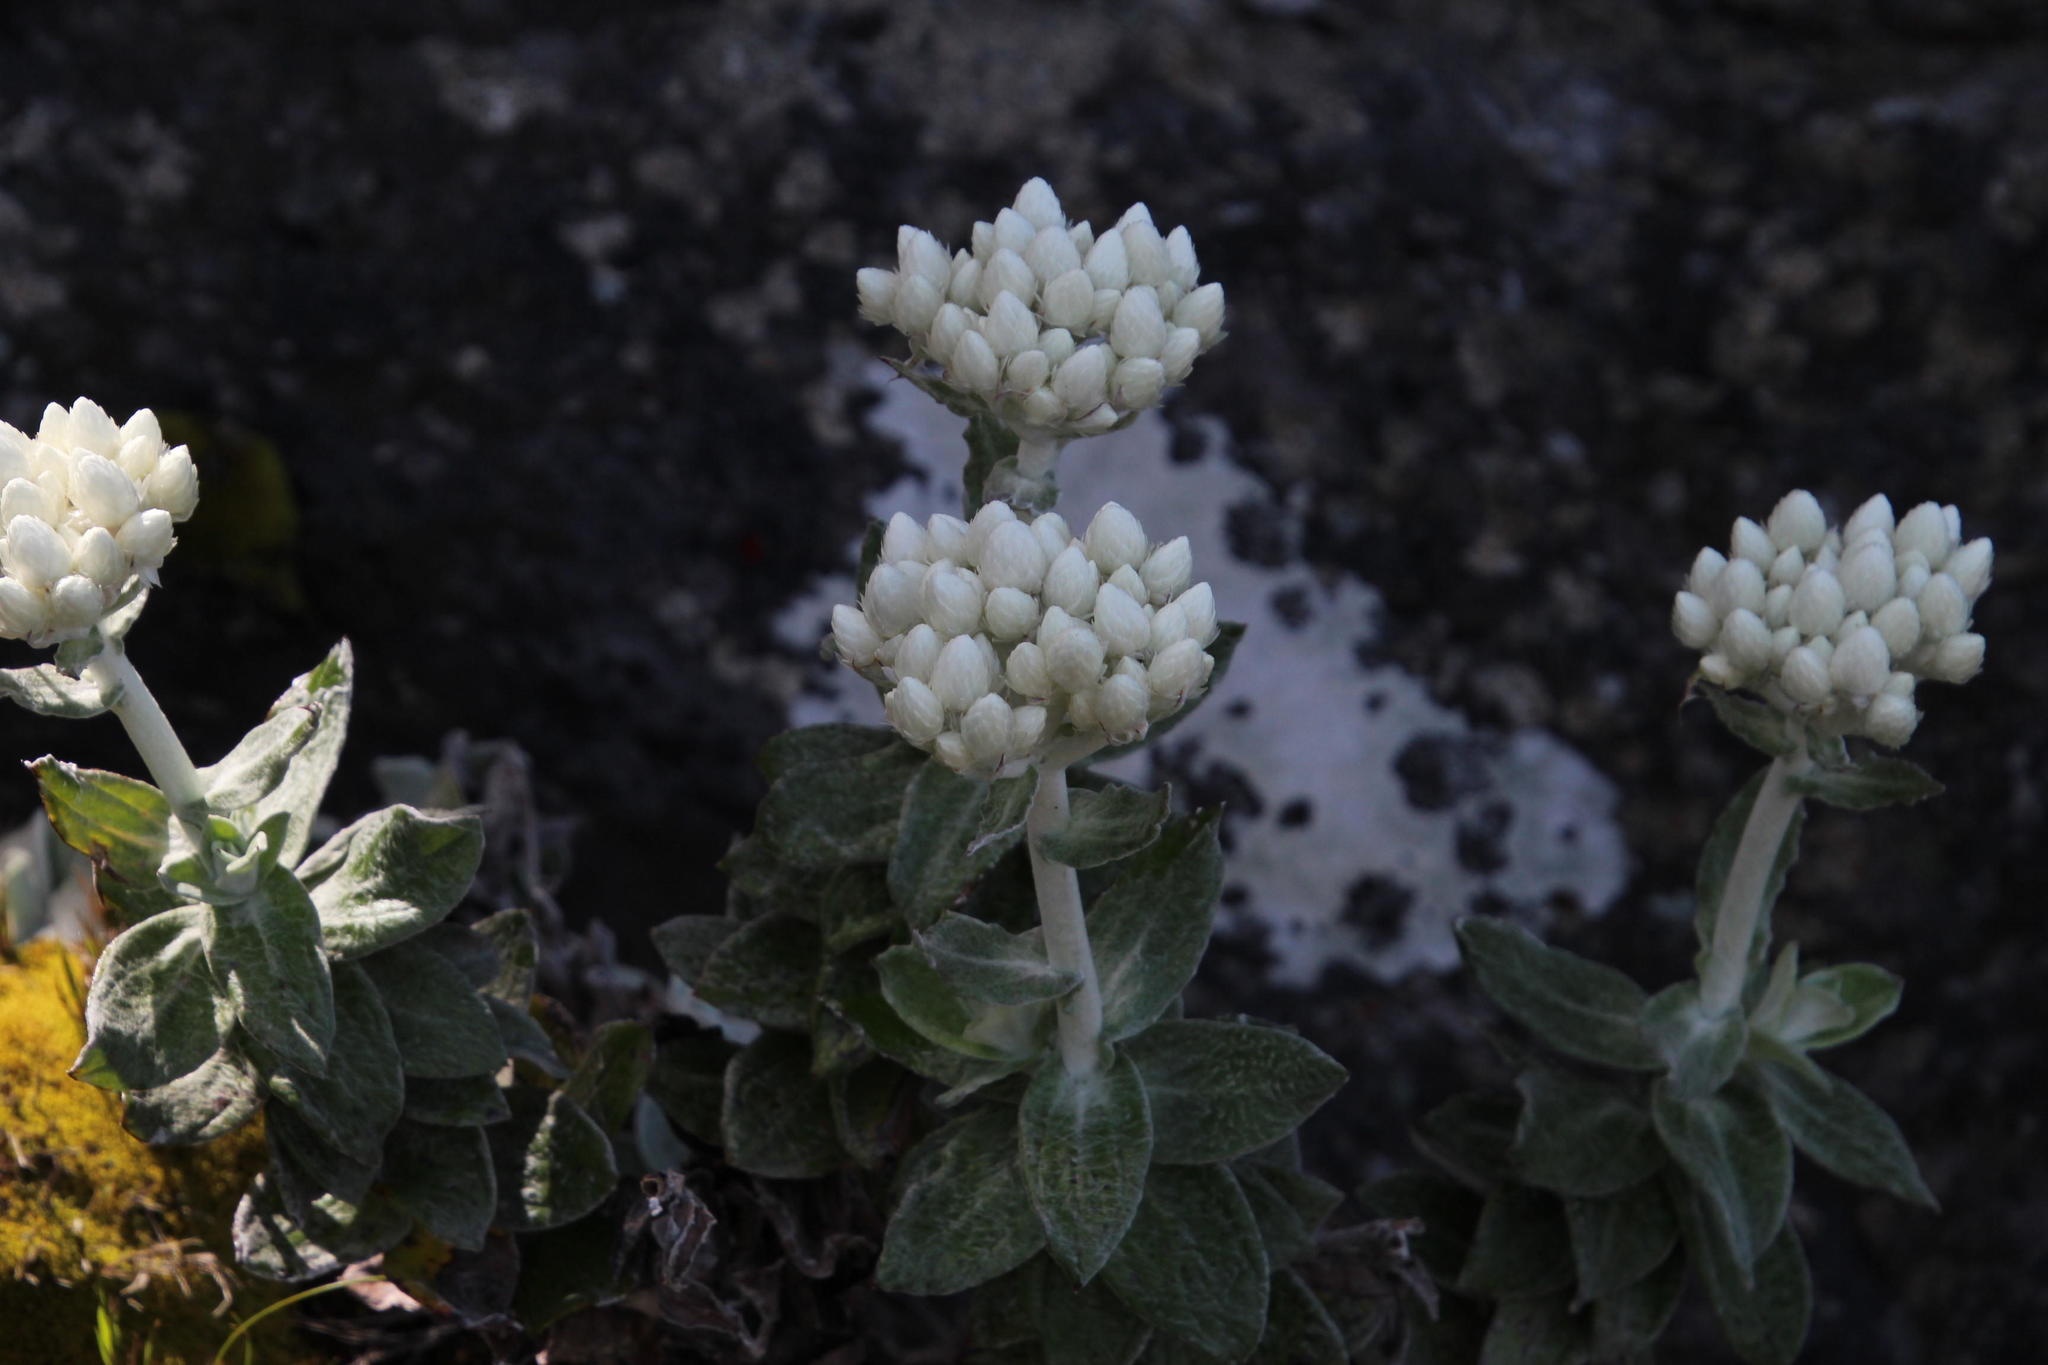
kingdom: Plantae
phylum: Tracheophyta
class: Magnoliopsida
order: Asterales
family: Asteraceae
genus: Helichrysum
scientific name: Helichrysum grandiflorum
